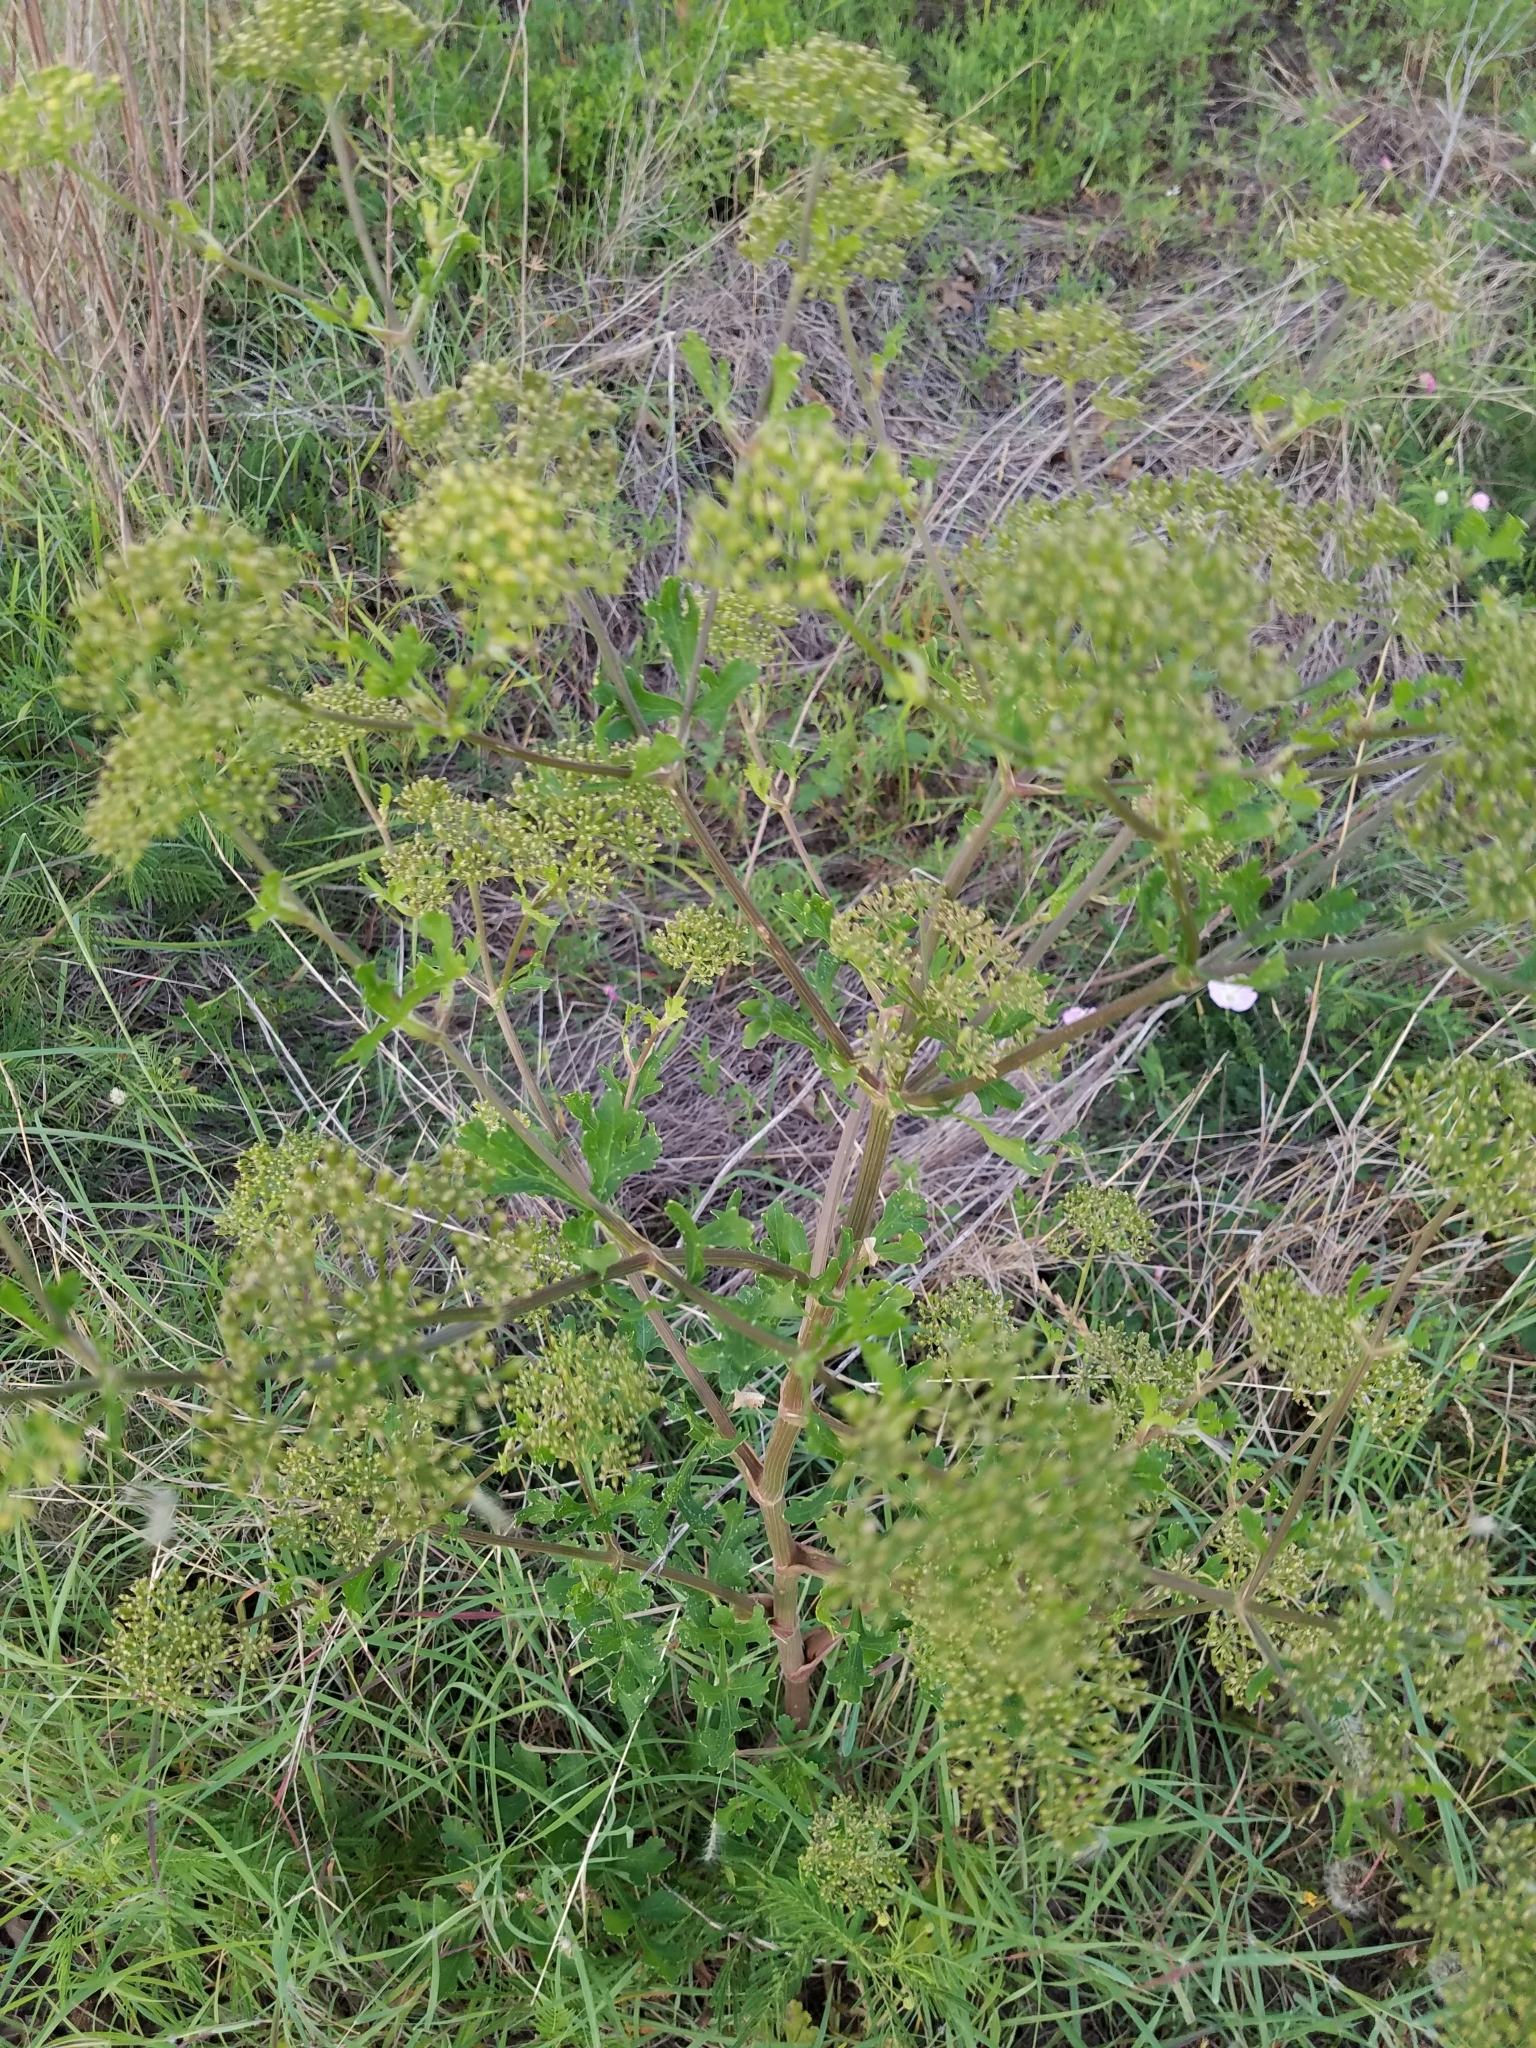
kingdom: Plantae
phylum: Tracheophyta
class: Magnoliopsida
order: Apiales
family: Apiaceae
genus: Polytaenia
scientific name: Polytaenia texana
